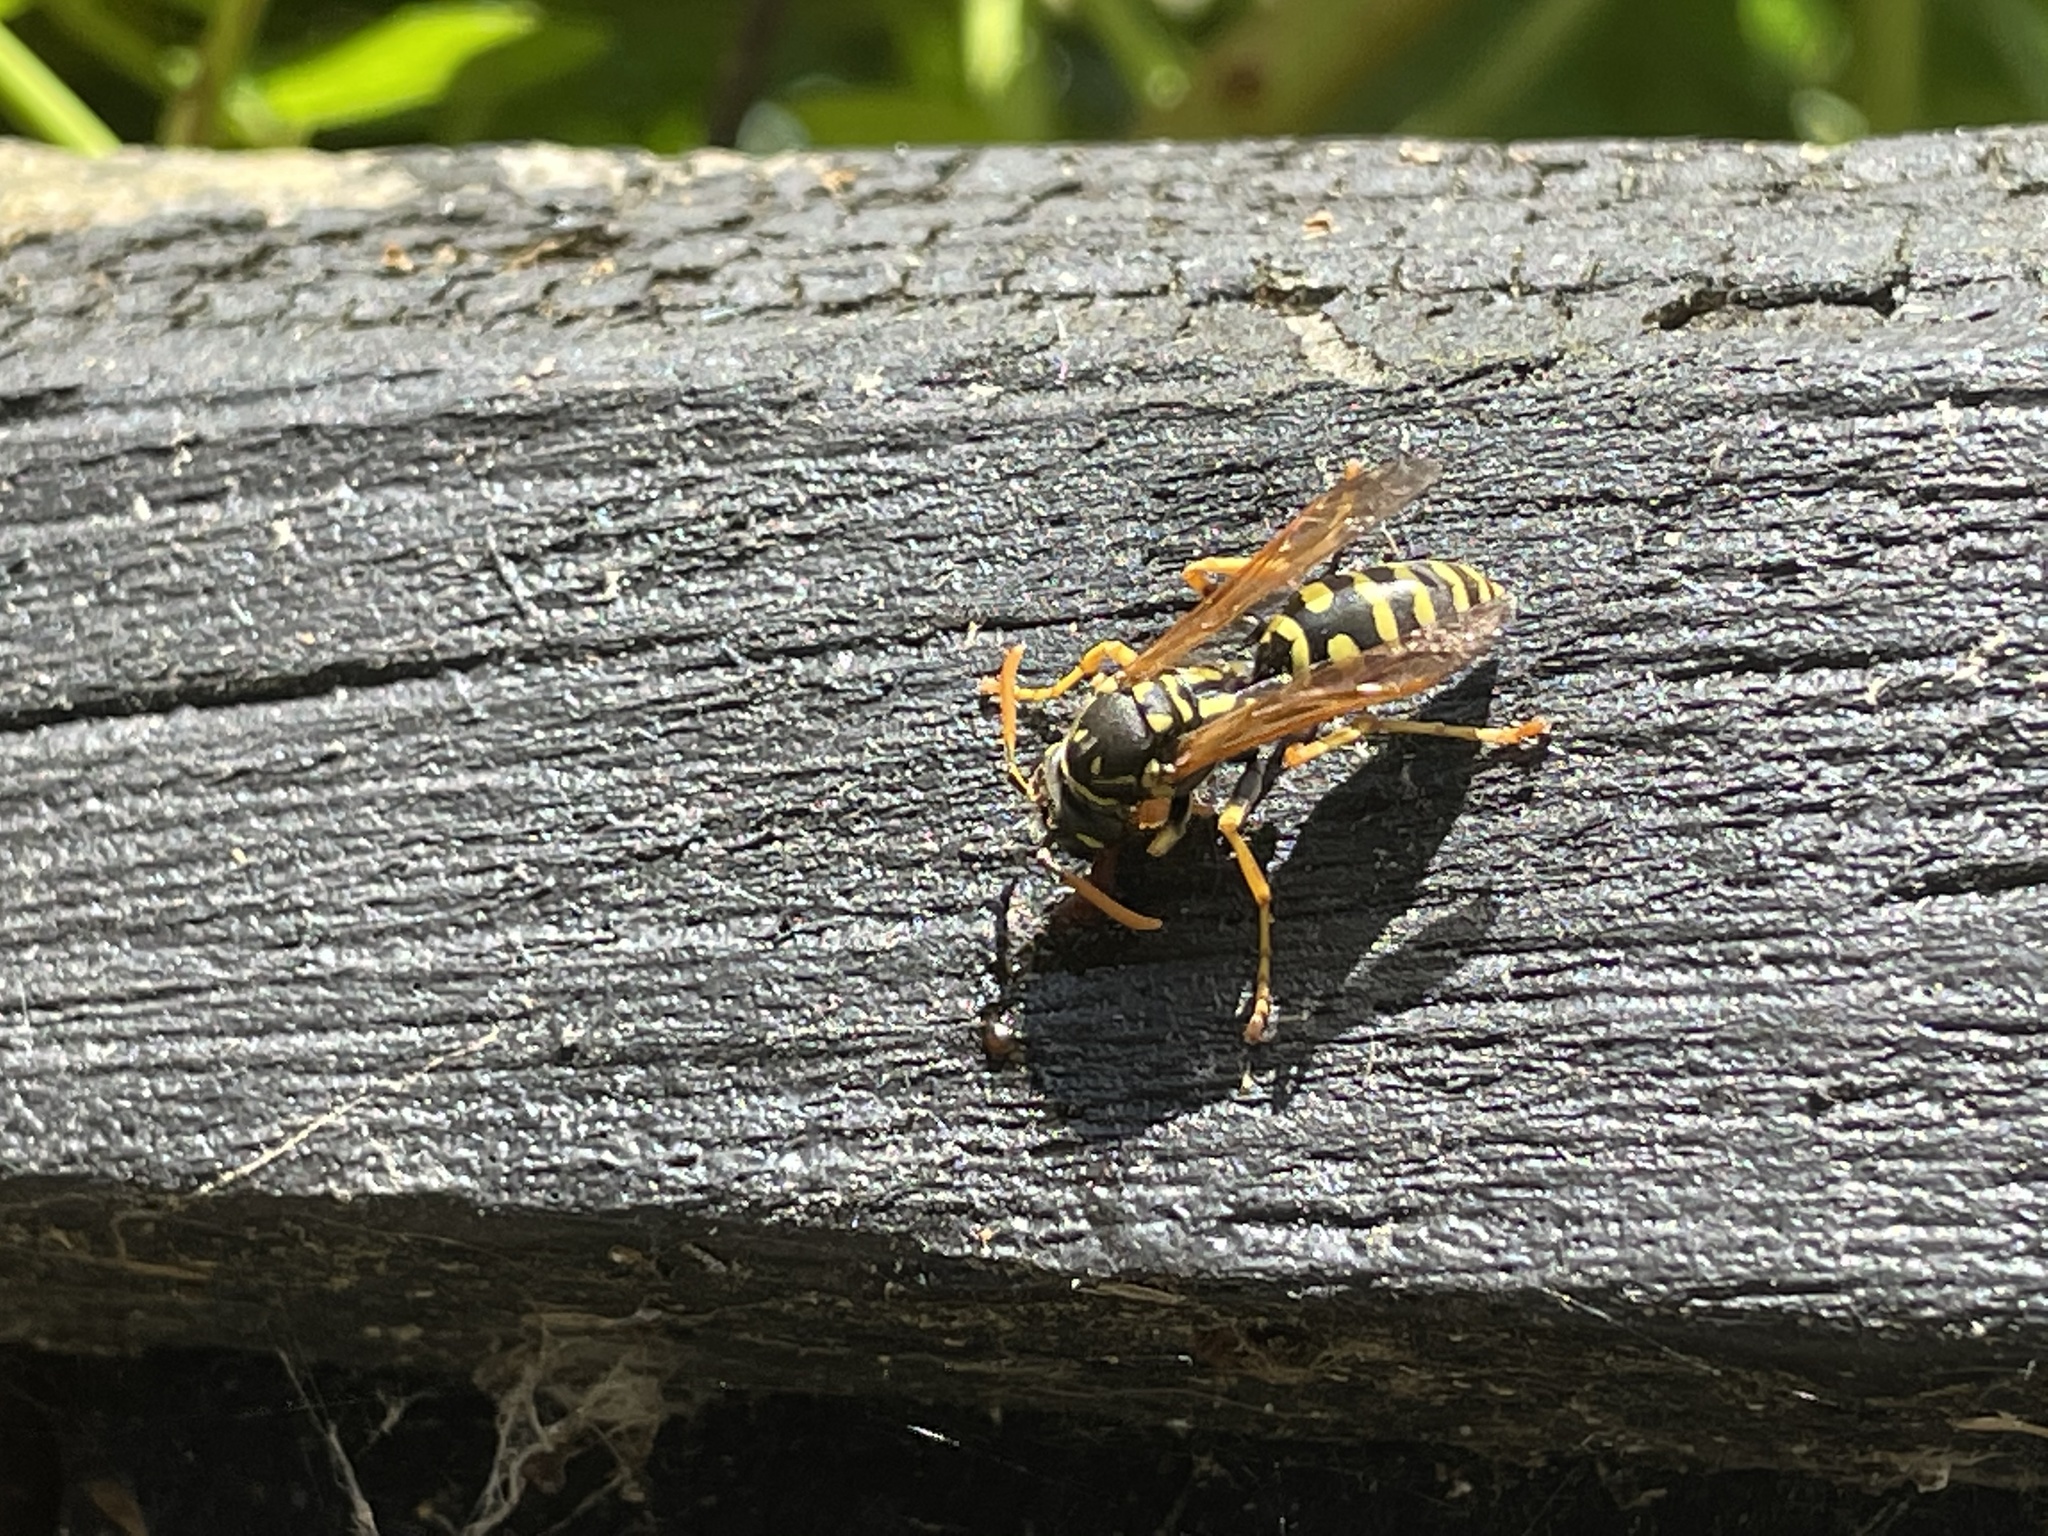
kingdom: Animalia
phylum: Arthropoda
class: Insecta
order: Hymenoptera
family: Eumenidae
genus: Polistes
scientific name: Polistes dominula
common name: Paper wasp
